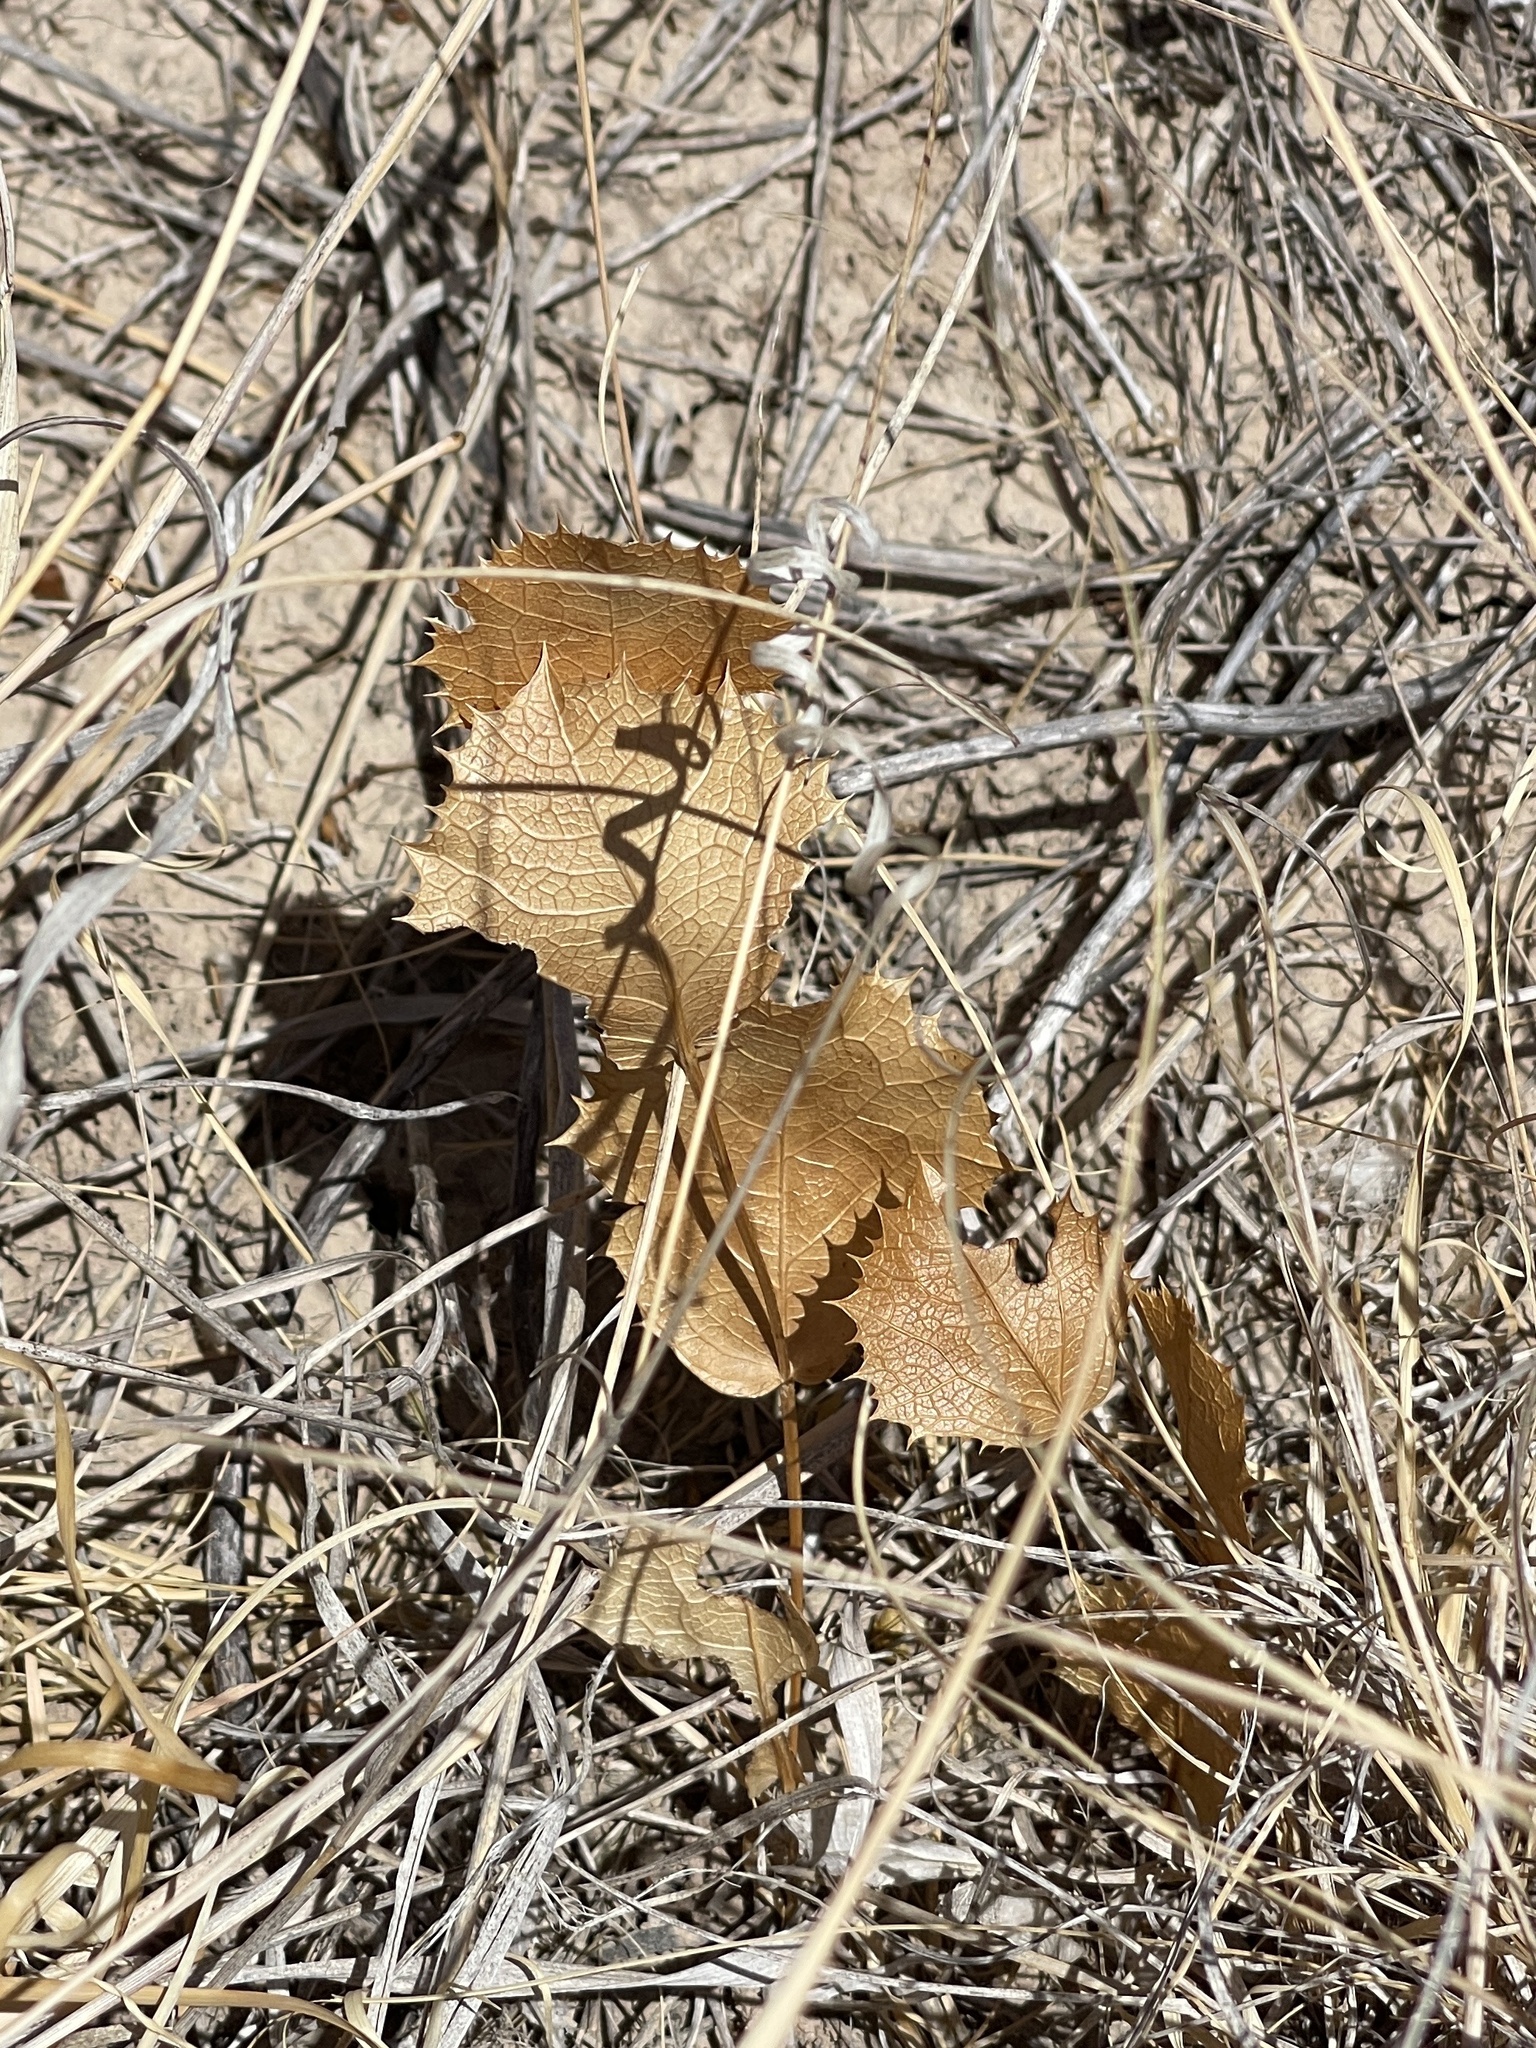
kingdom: Plantae
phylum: Tracheophyta
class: Magnoliopsida
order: Asterales
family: Asteraceae
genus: Acourtia
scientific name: Acourtia nana
